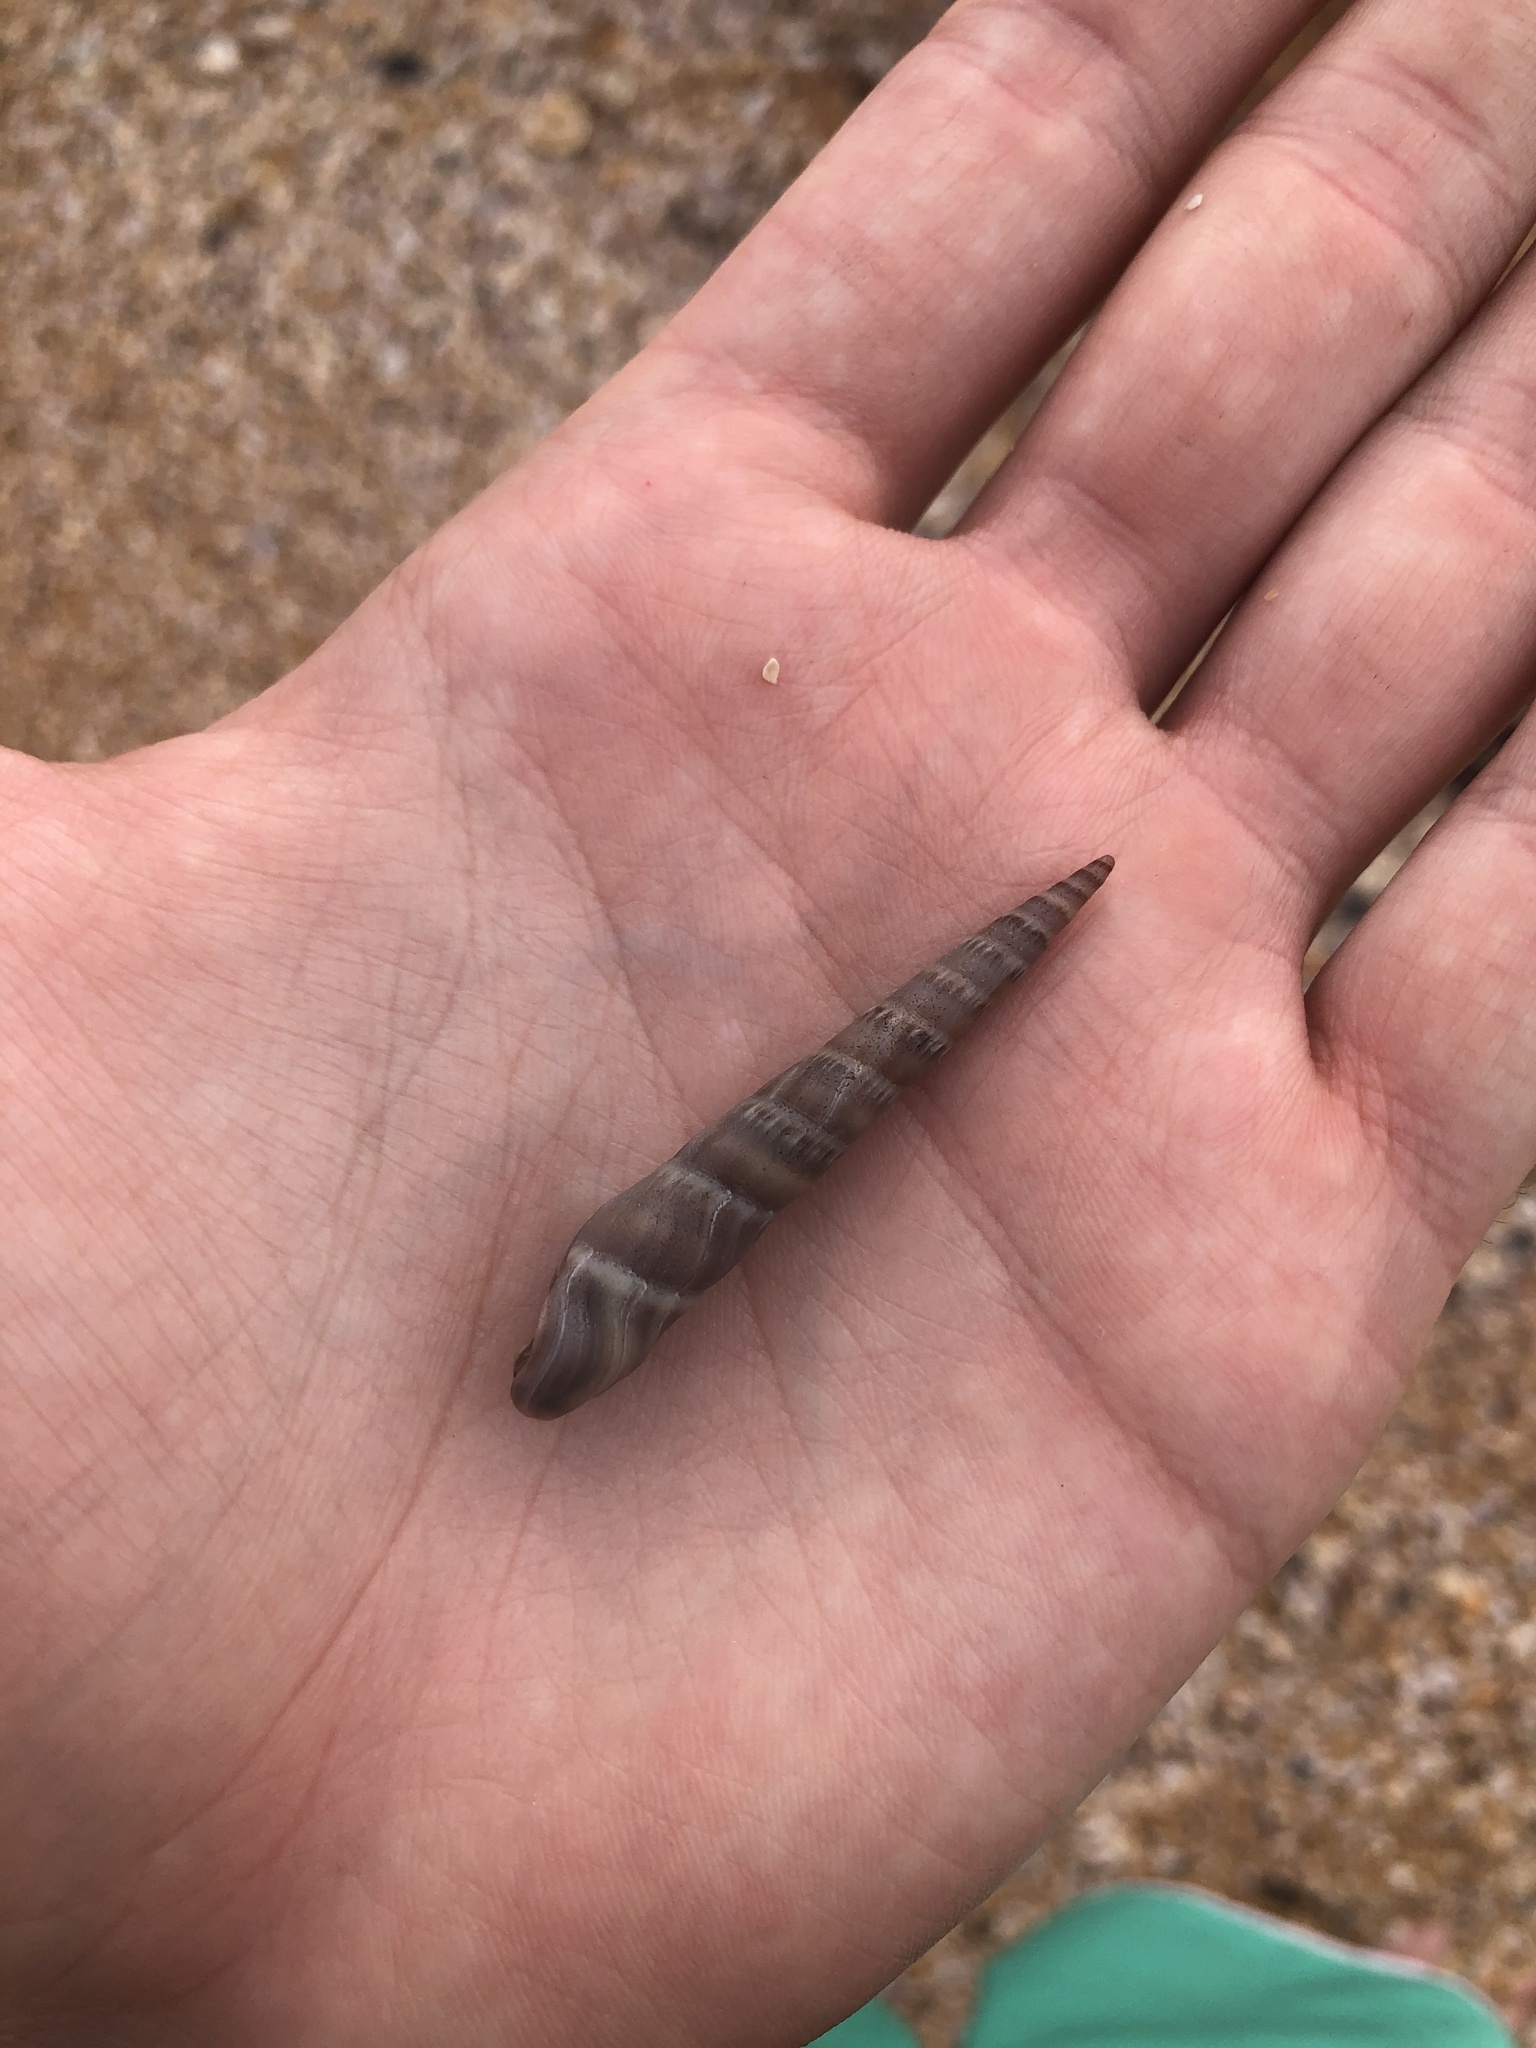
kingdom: Animalia
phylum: Mollusca
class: Gastropoda
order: Neogastropoda
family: Terebridae
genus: Hastula
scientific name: Hastula cinerea
